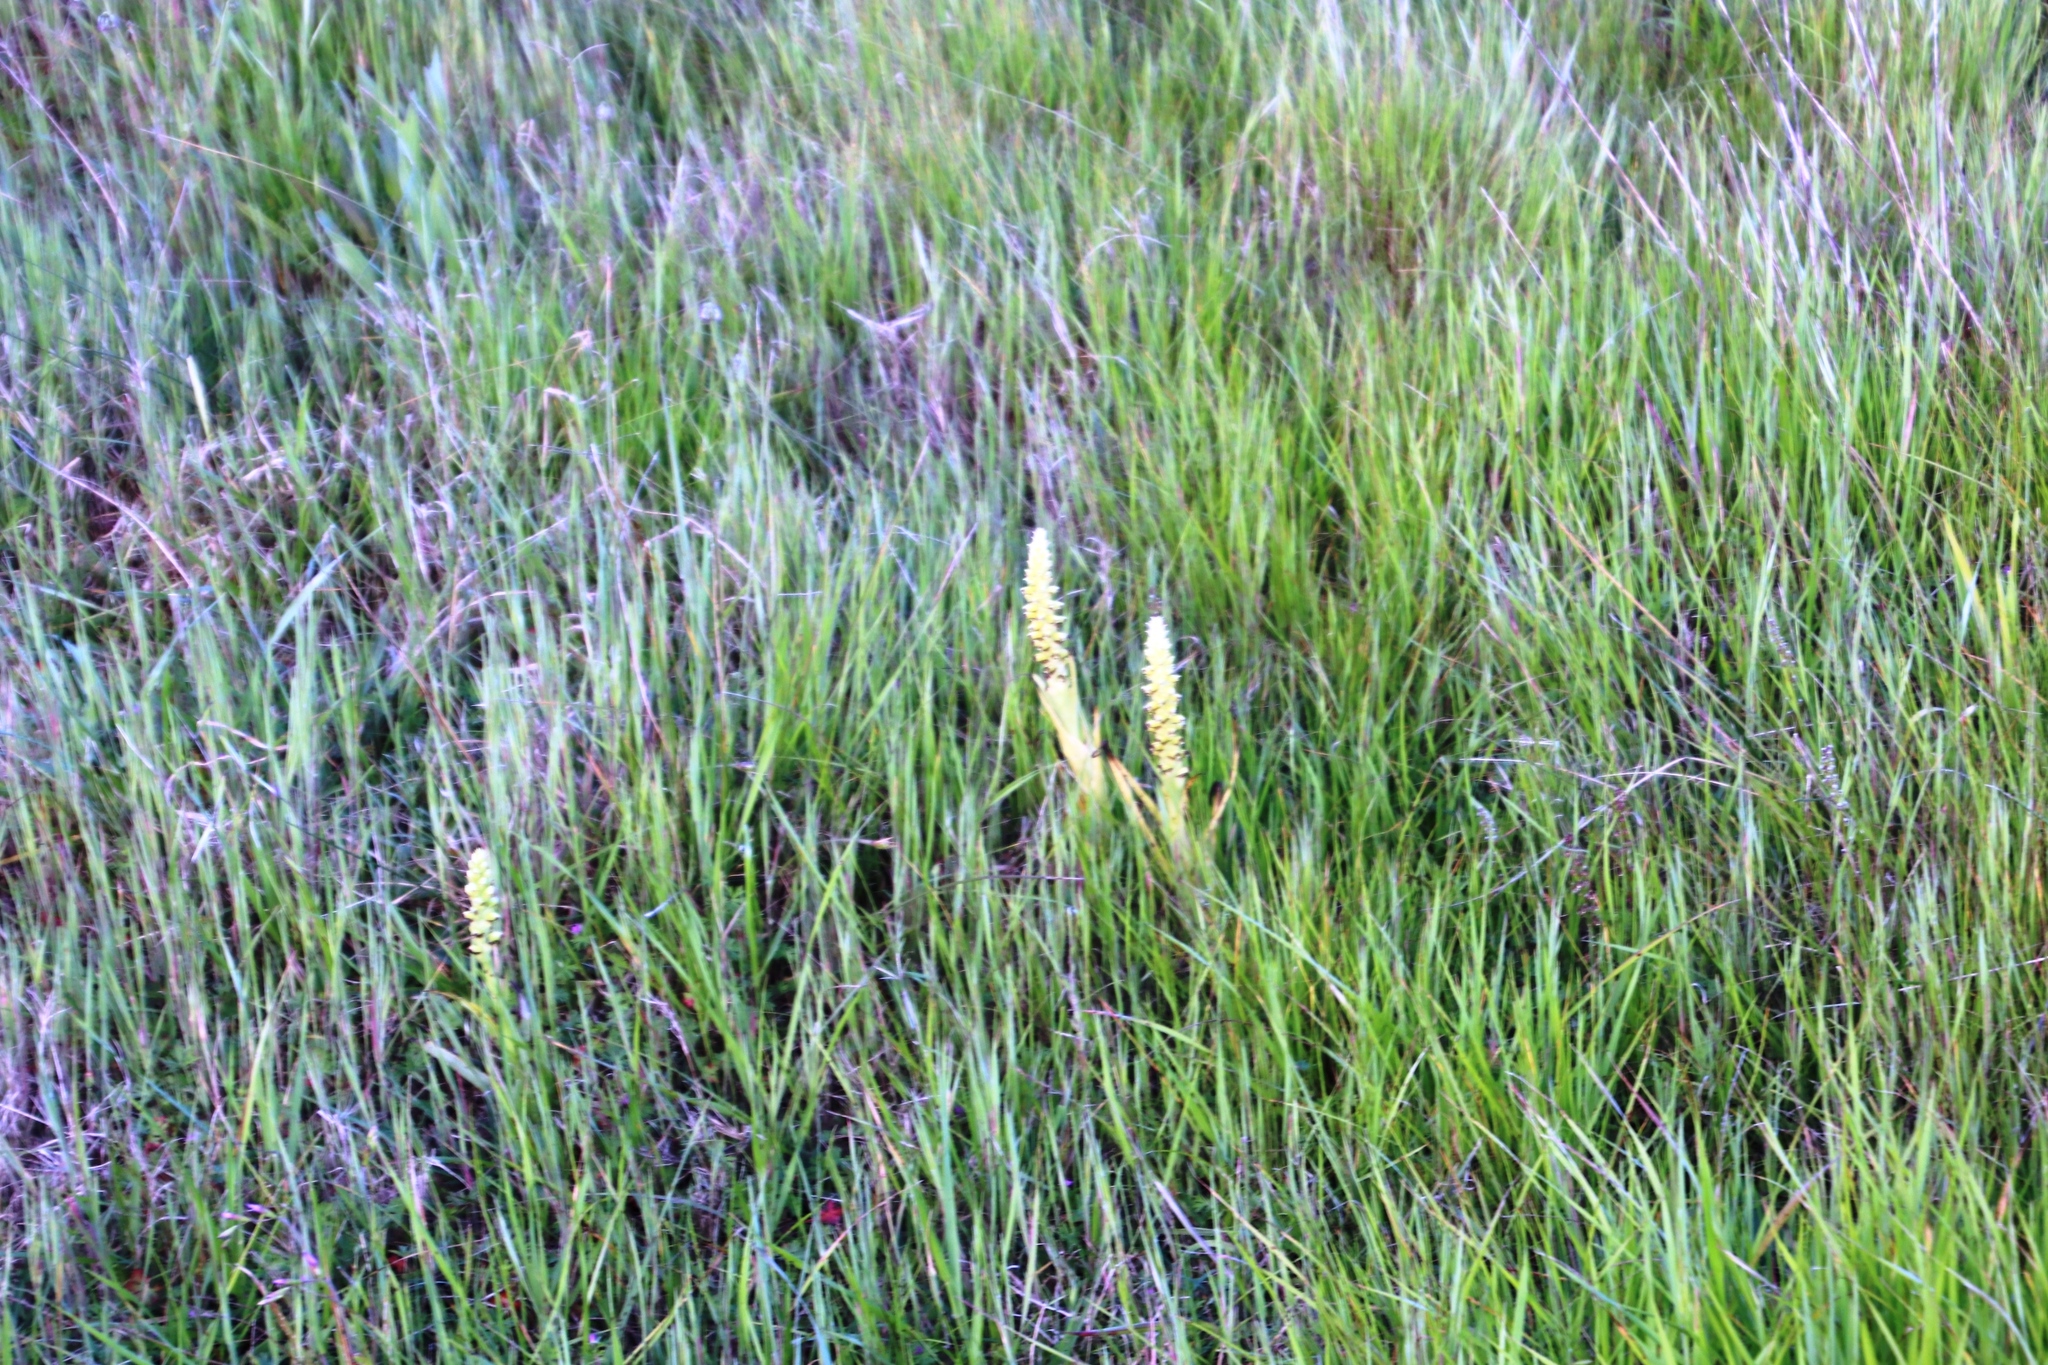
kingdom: Plantae
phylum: Tracheophyta
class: Liliopsida
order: Asparagales
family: Orchidaceae
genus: Corycium
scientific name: Corycium orobanchoides
